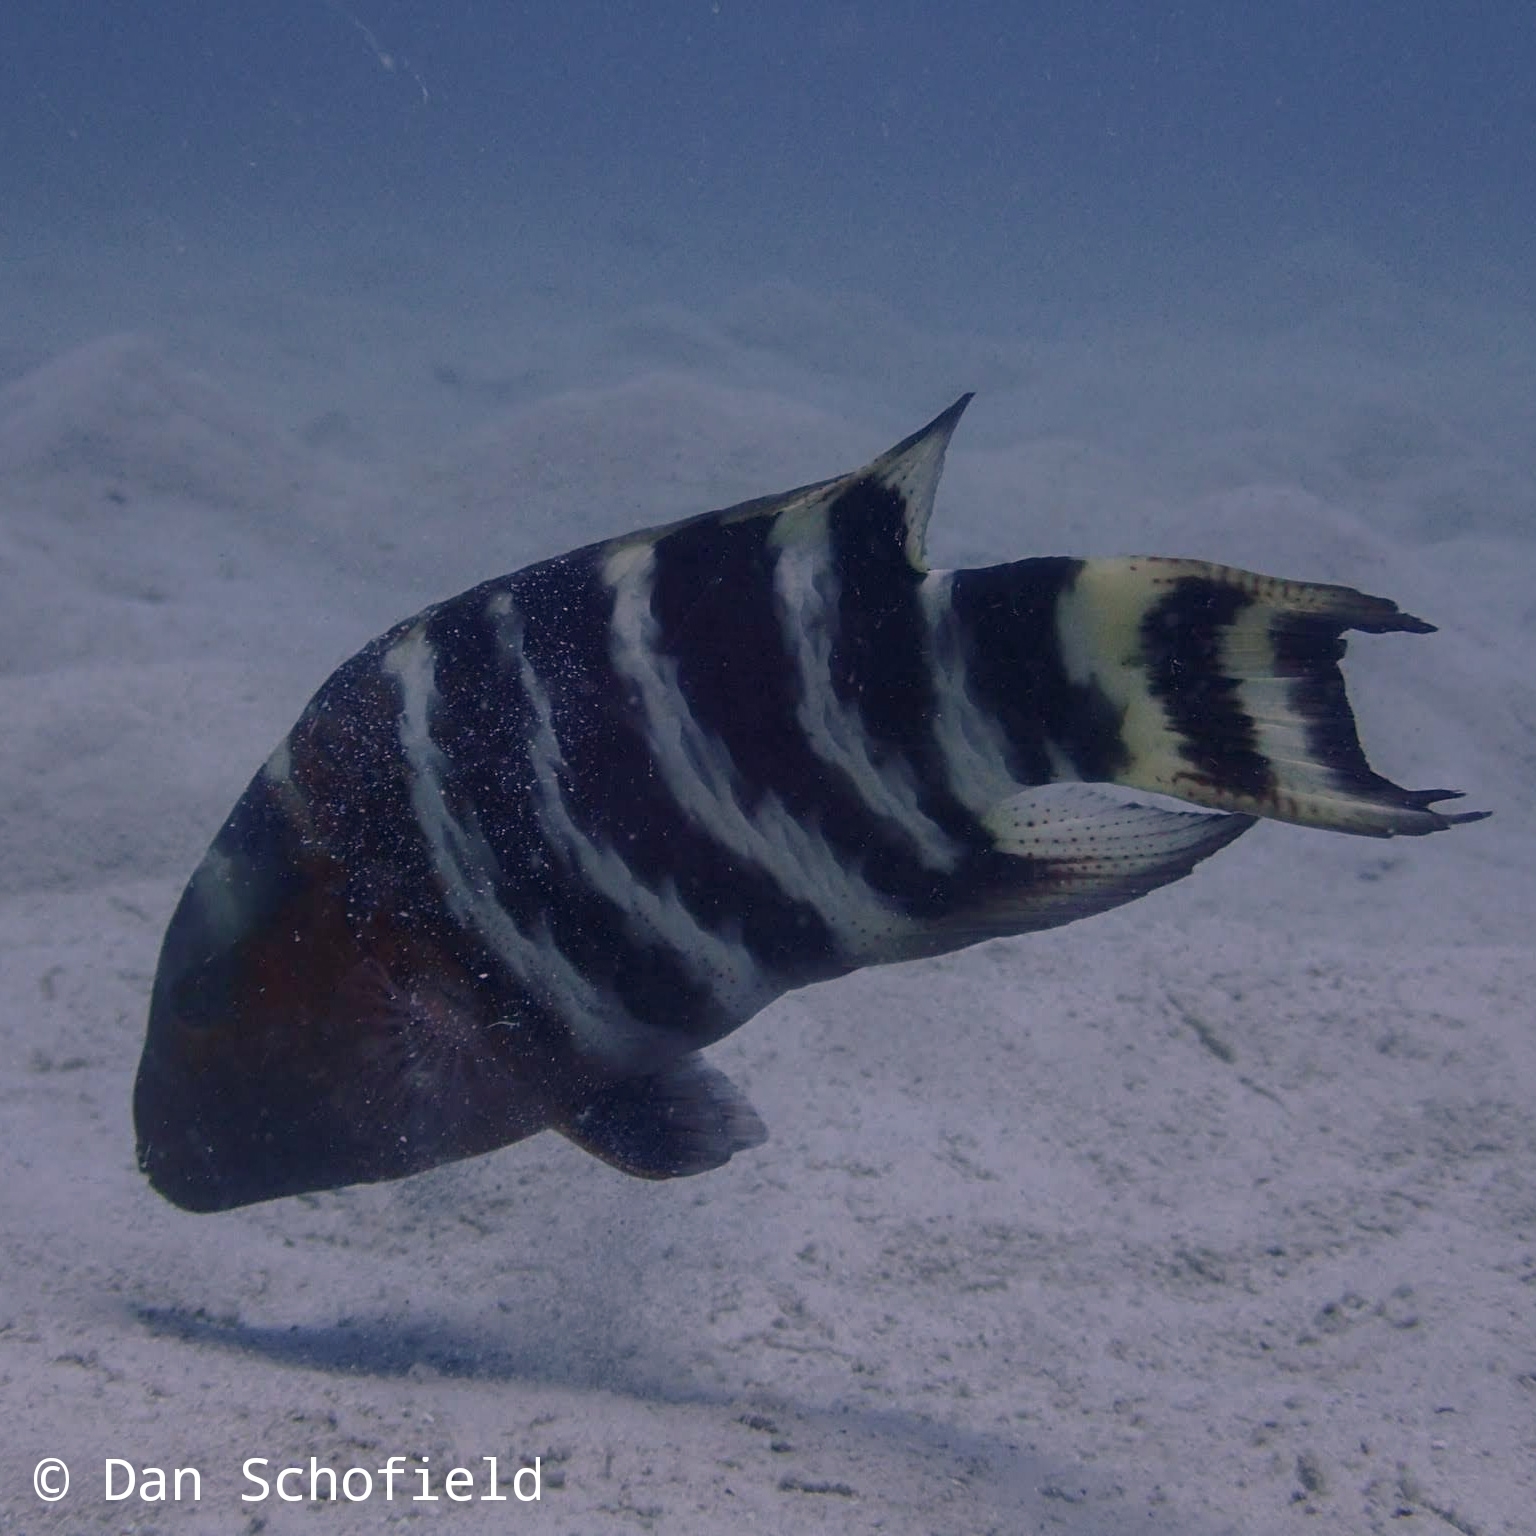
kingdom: Animalia
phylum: Chordata
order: Perciformes
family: Labridae
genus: Cheilinus
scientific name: Cheilinus fasciatus
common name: Red-breasted wrasse
